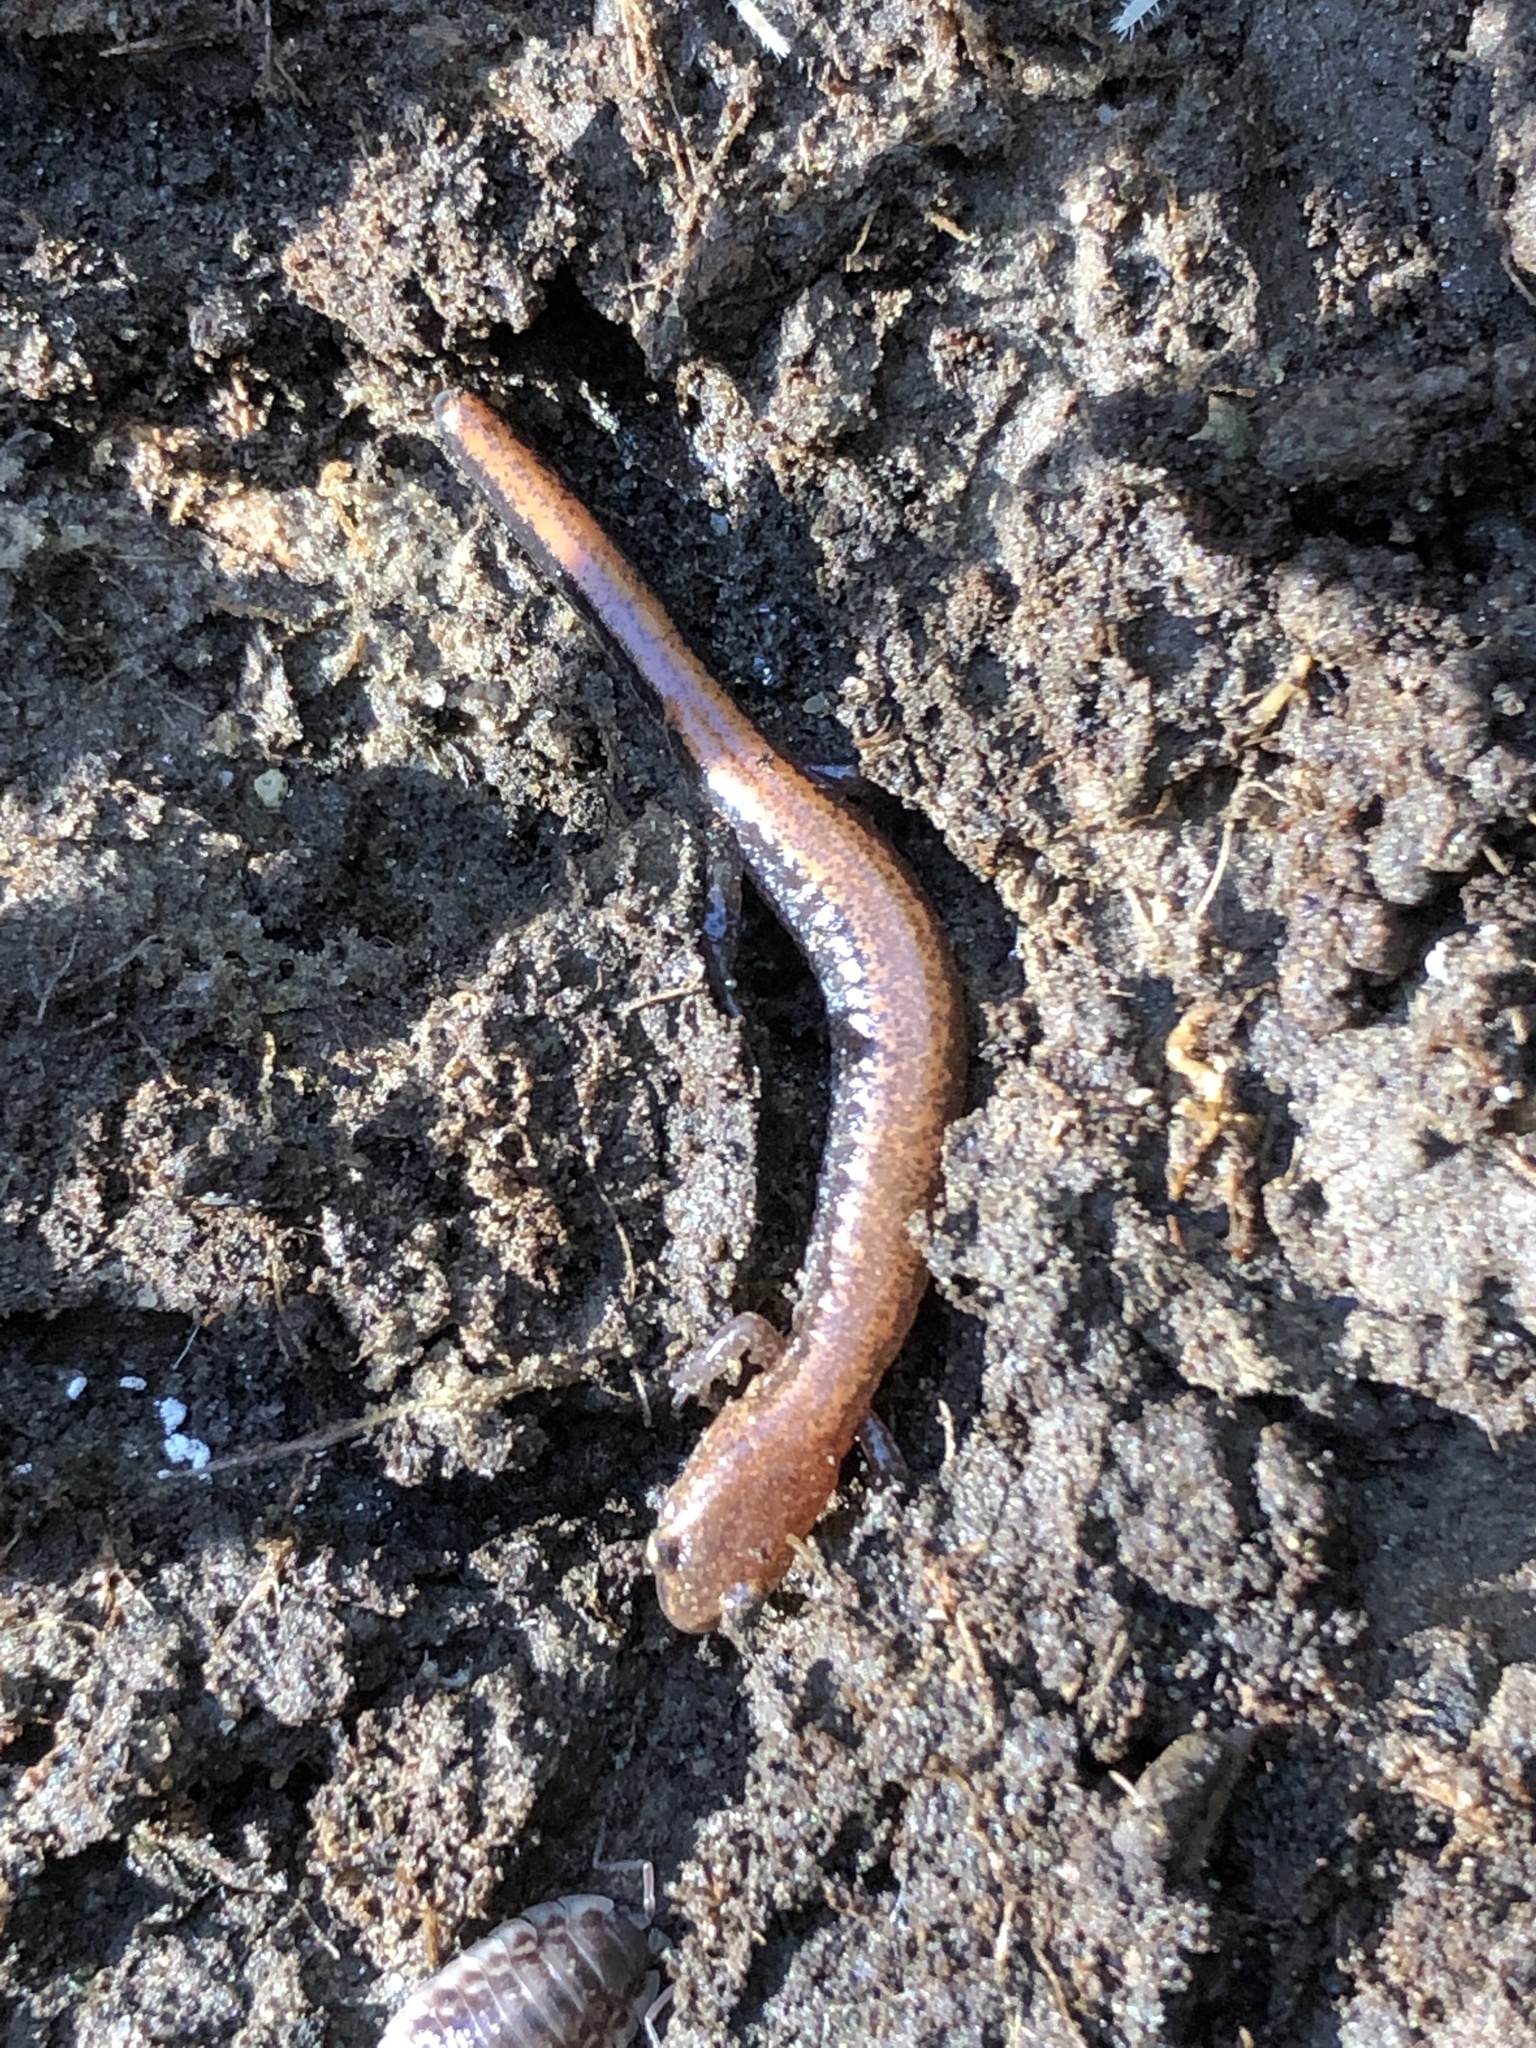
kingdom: Animalia
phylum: Chordata
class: Amphibia
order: Caudata
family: Plethodontidae
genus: Plethodon
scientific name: Plethodon cinereus
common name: Redback salamander
